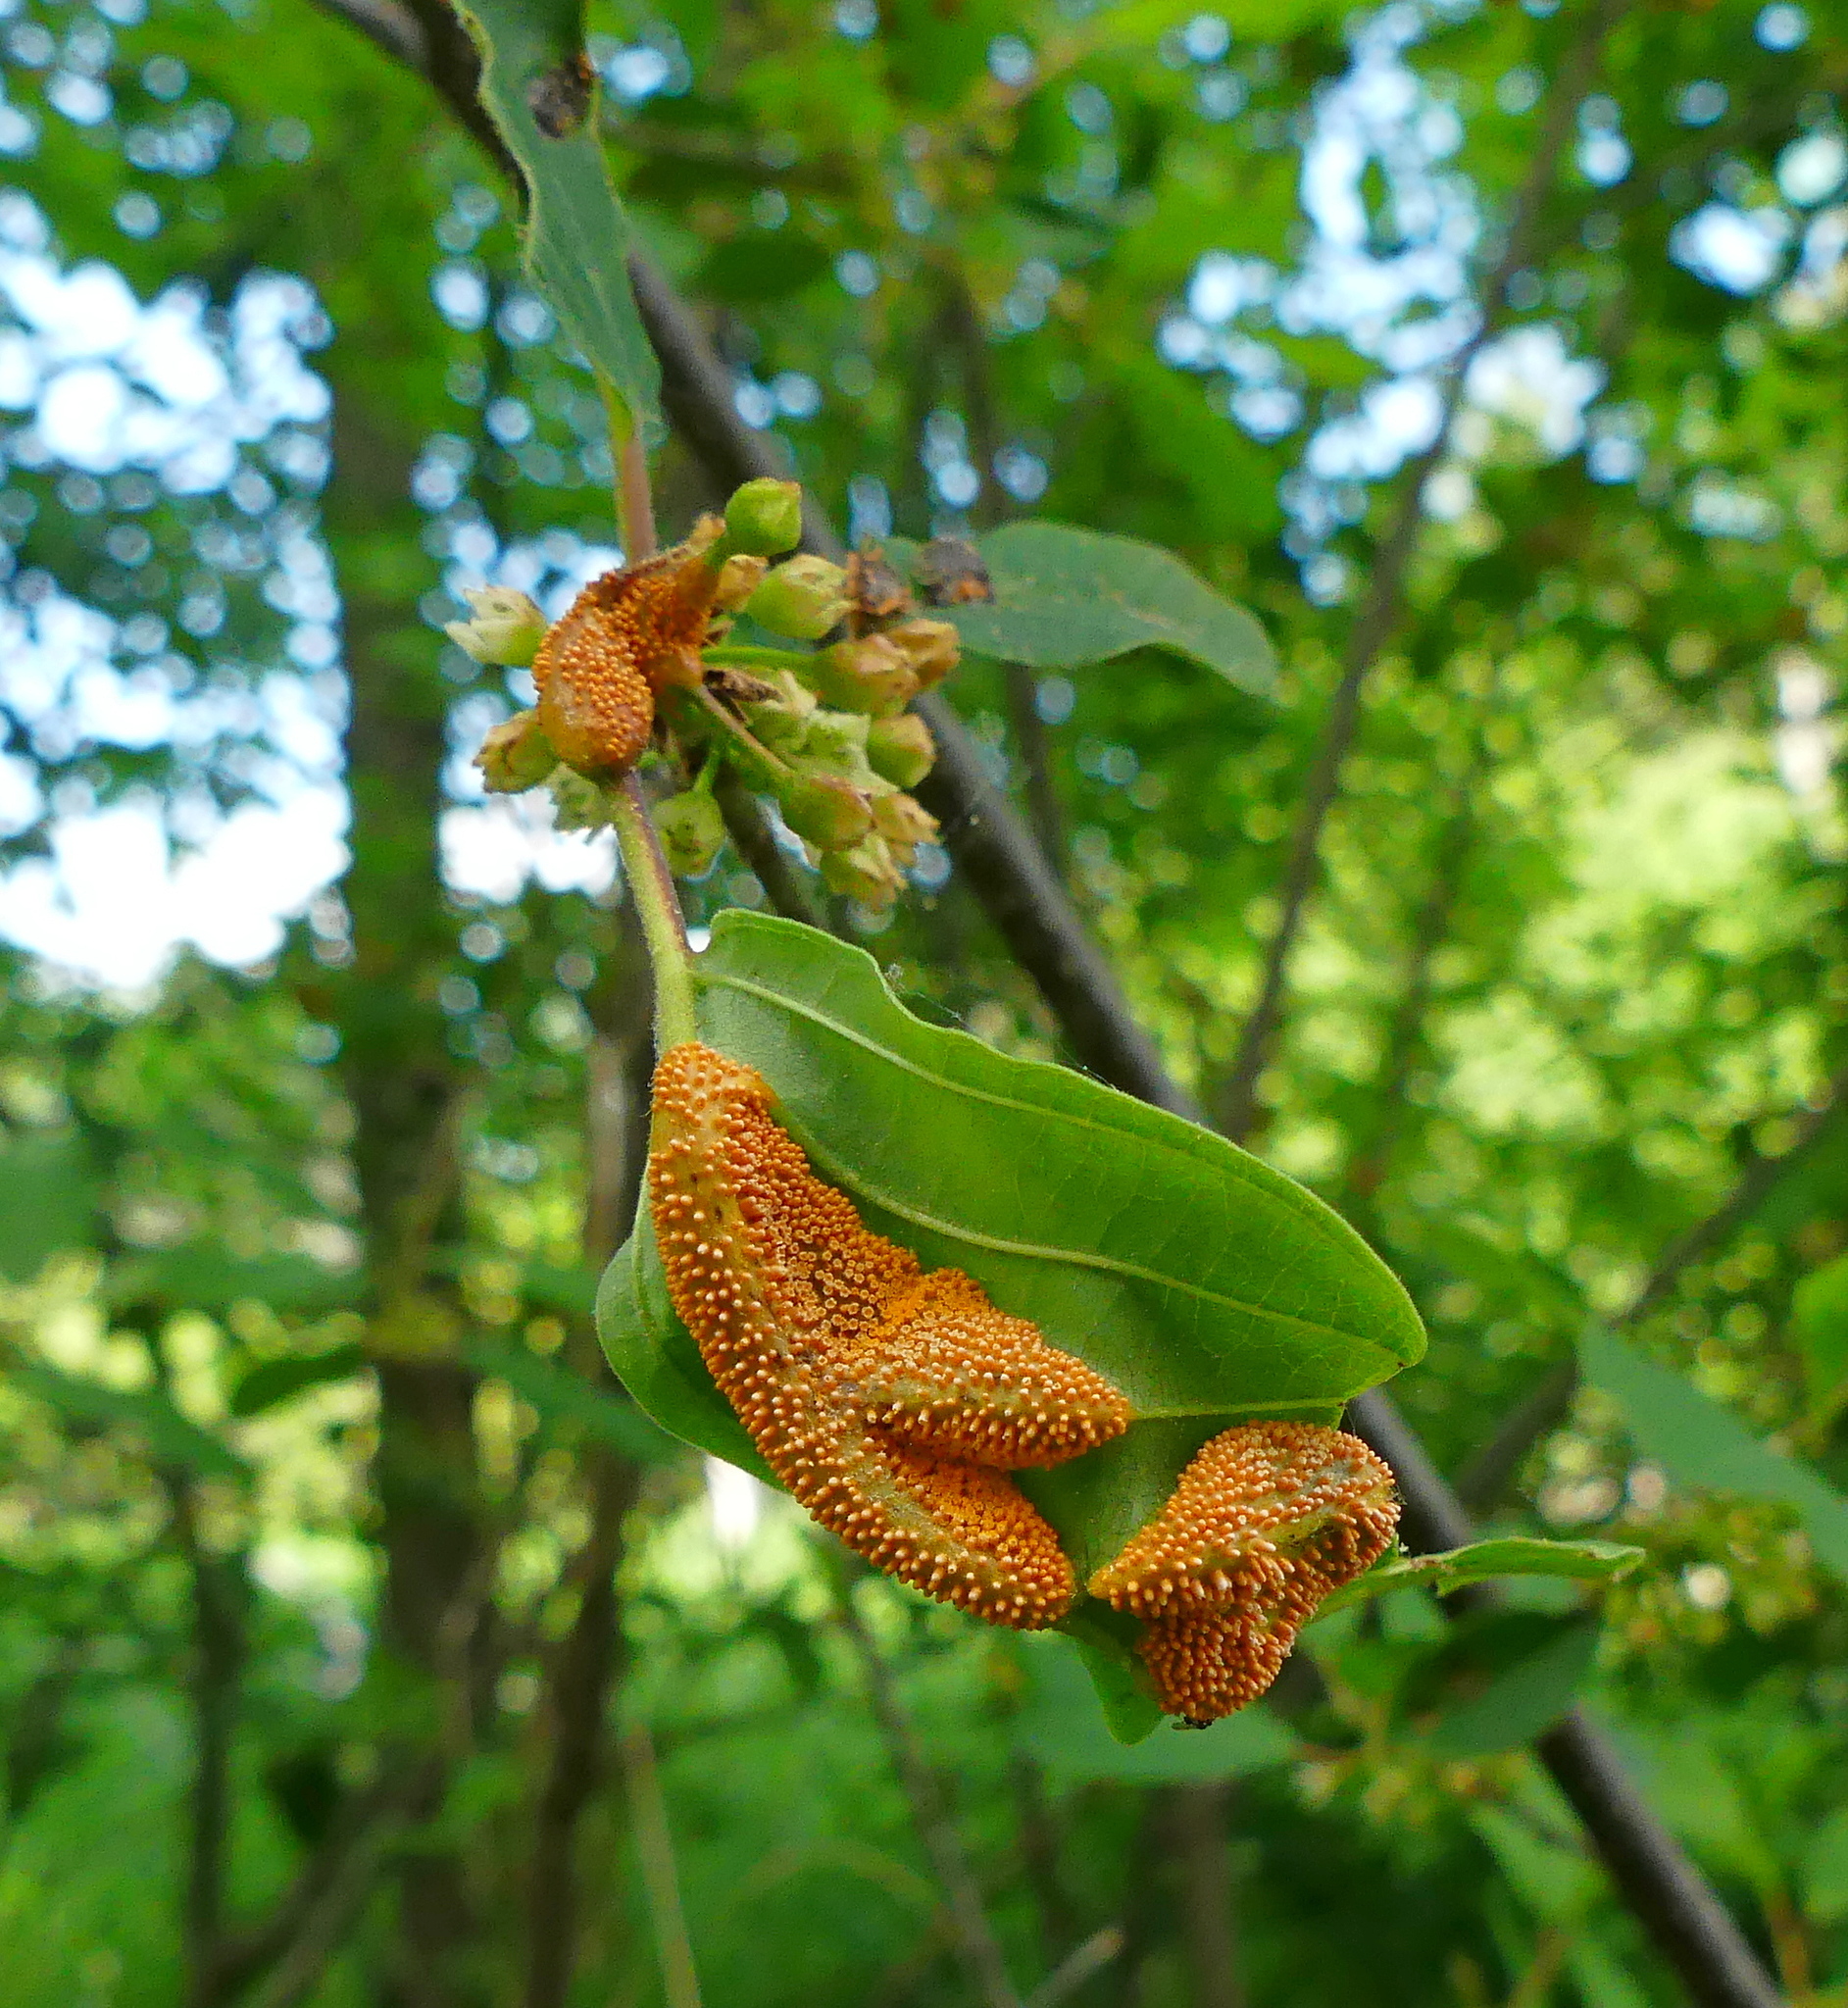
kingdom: Fungi
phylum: Basidiomycota
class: Pucciniomycetes
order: Pucciniales
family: Pucciniaceae
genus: Puccinia
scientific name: Puccinia coronata
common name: Crown rust
